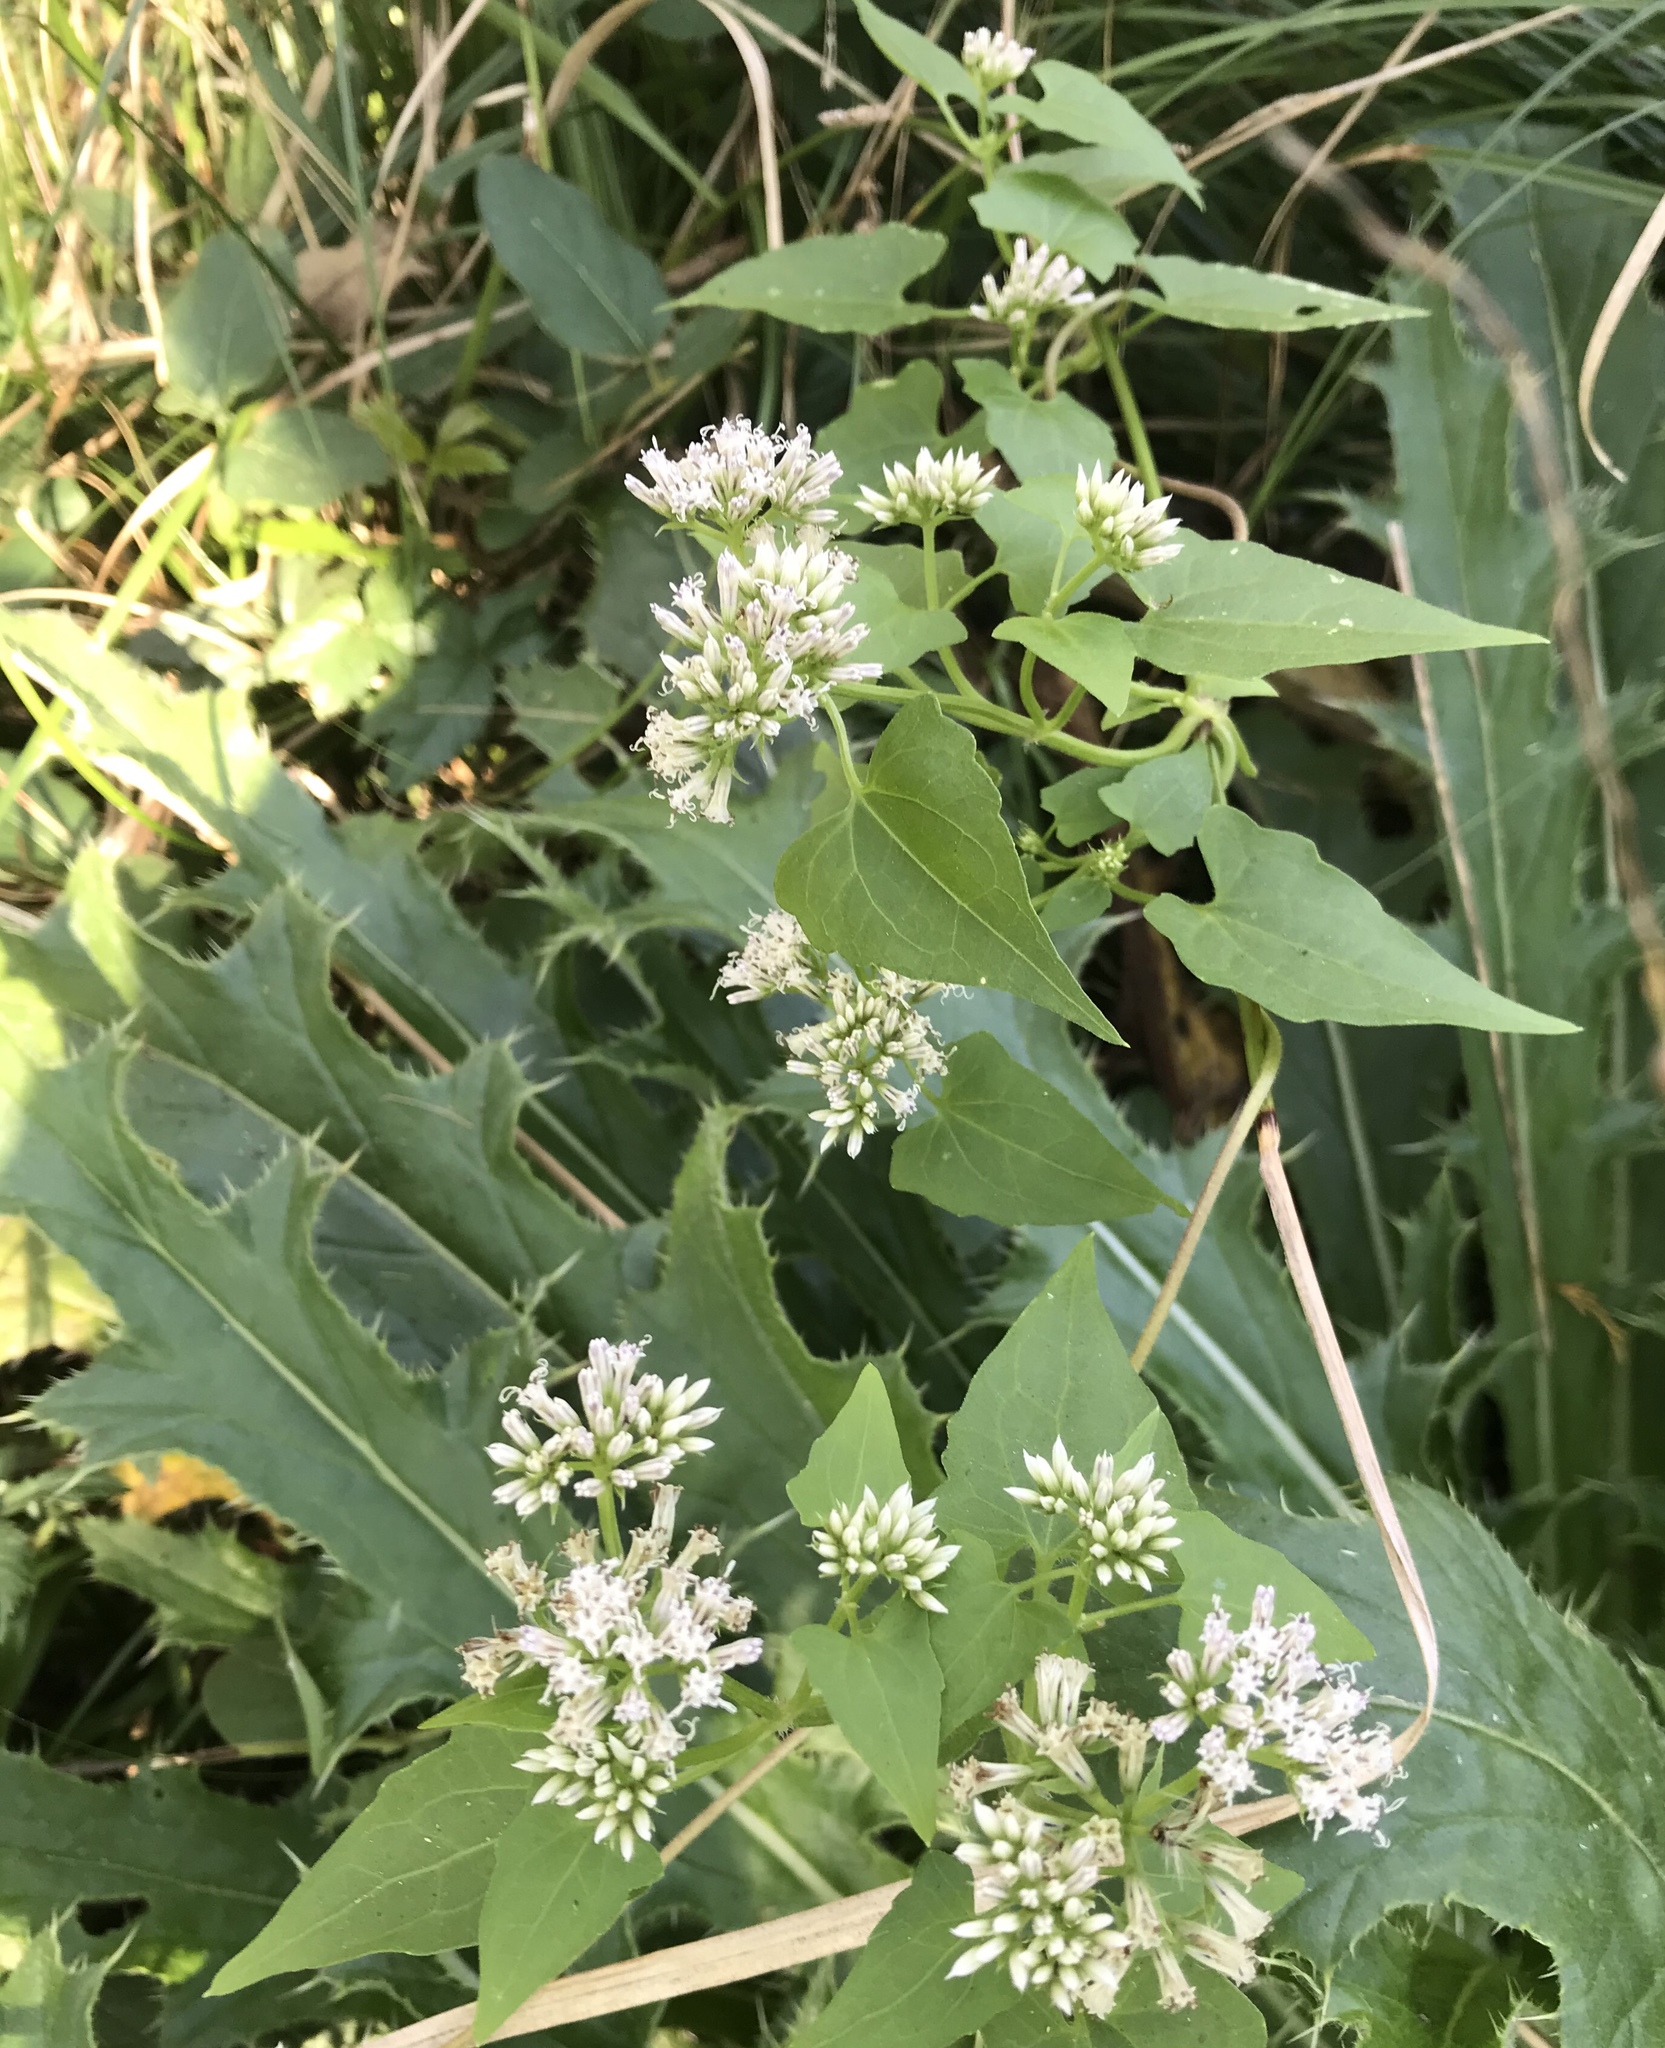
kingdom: Plantae
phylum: Tracheophyta
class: Magnoliopsida
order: Asterales
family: Asteraceae
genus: Mikania
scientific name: Mikania scandens
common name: Climbing hempvine
